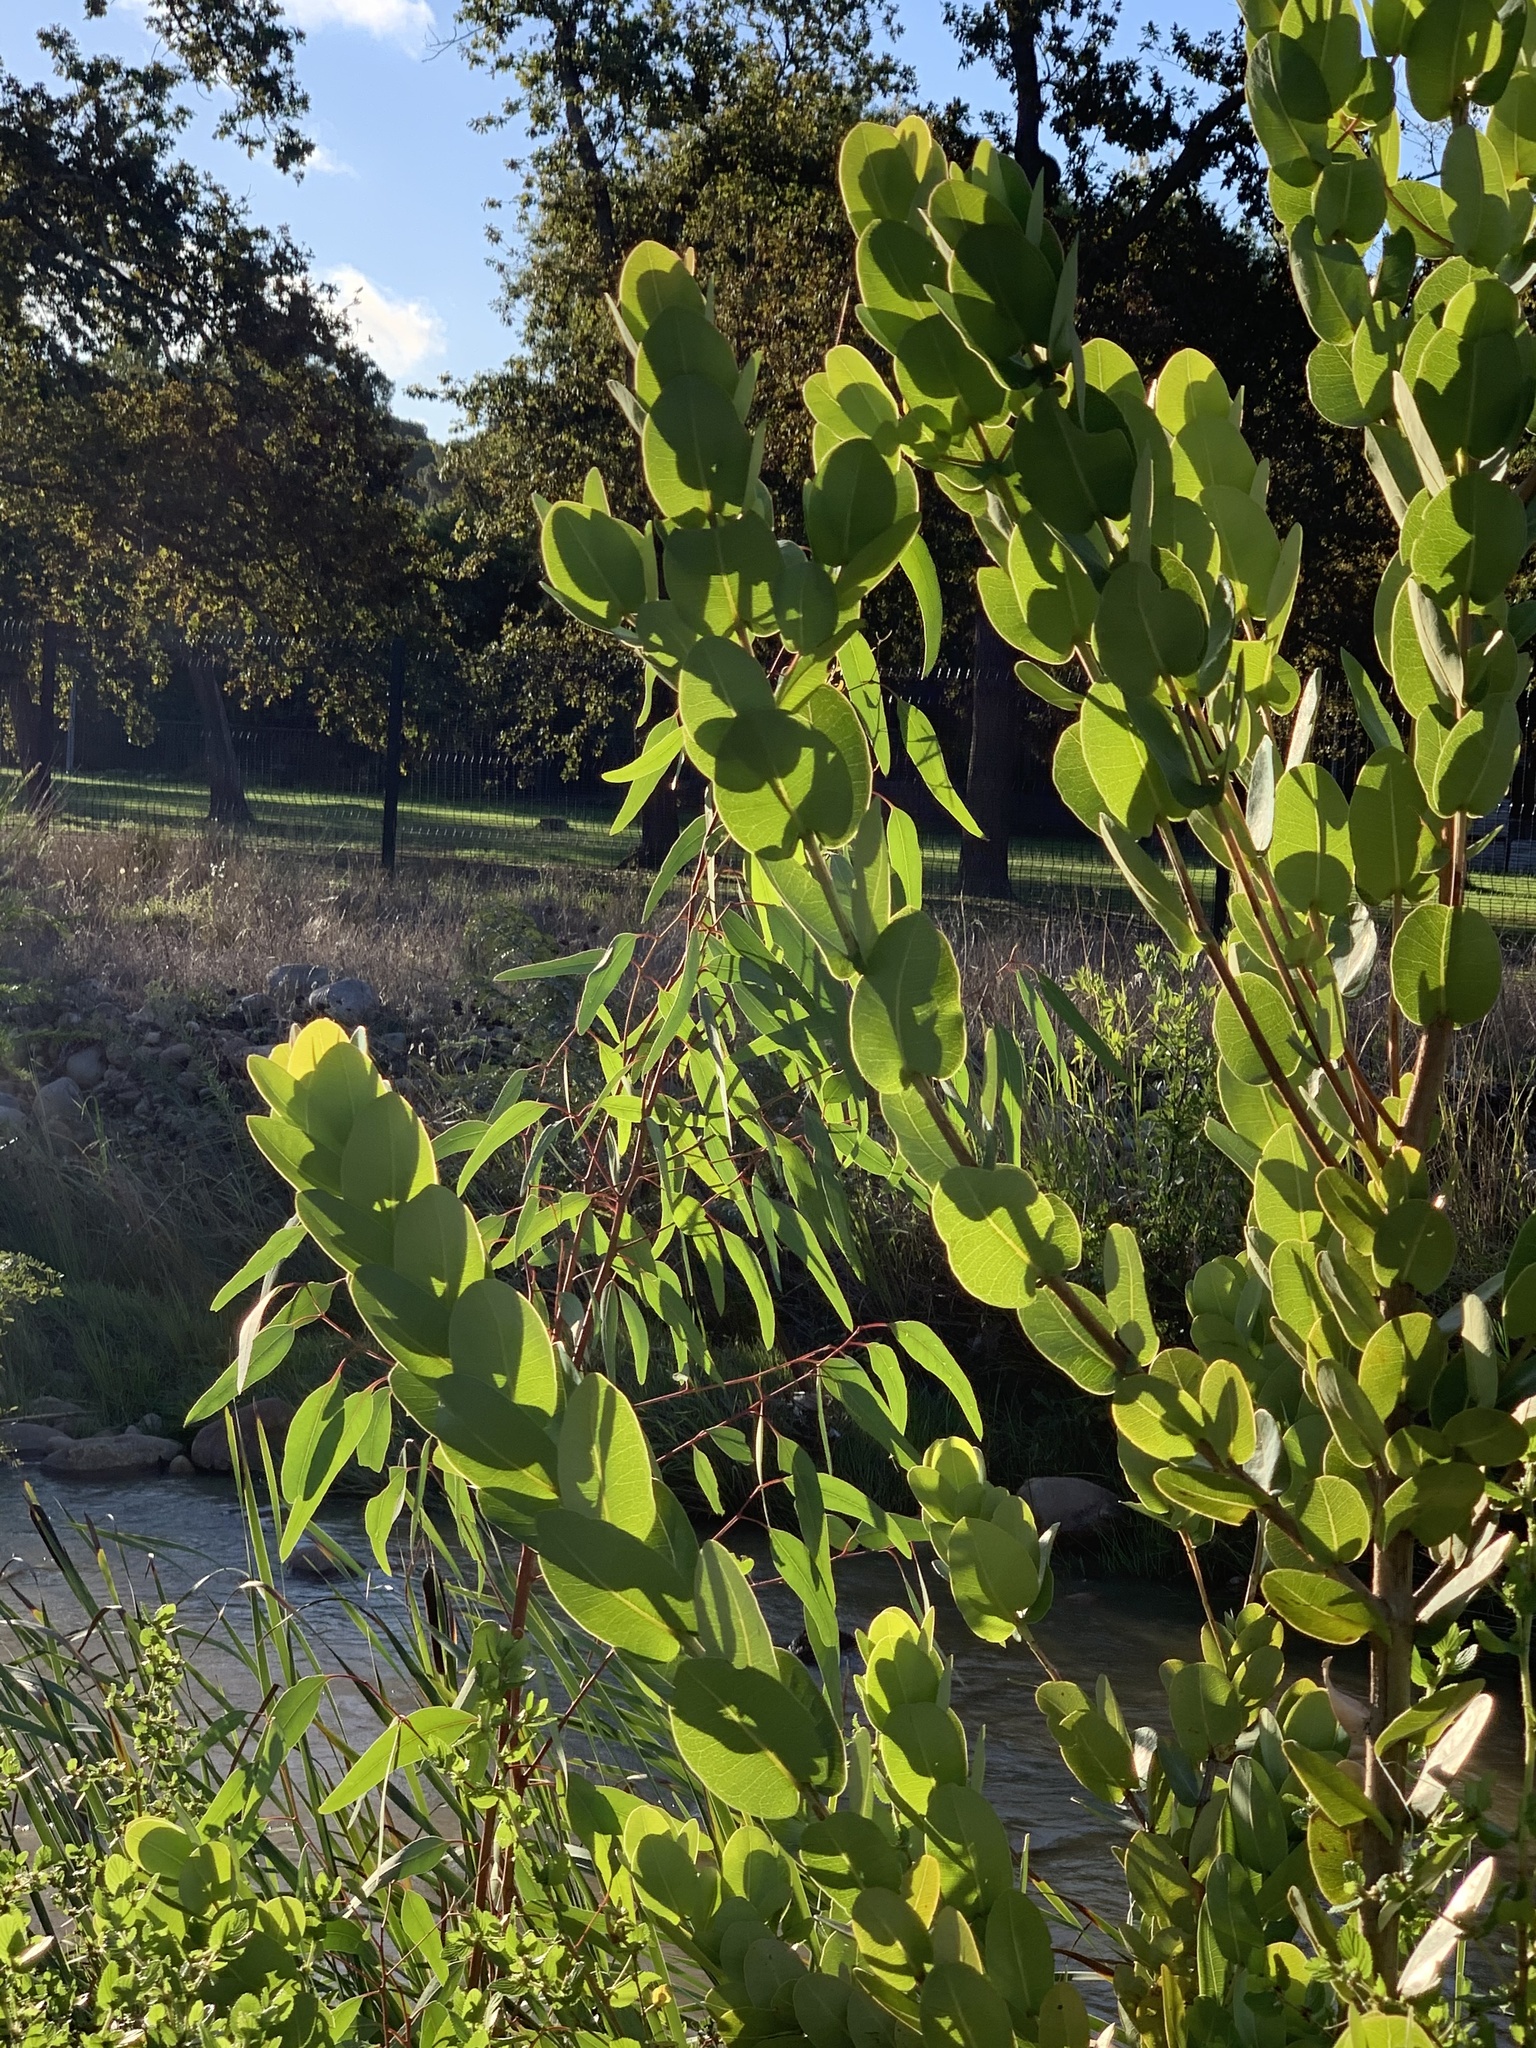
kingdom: Plantae
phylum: Tracheophyta
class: Magnoliopsida
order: Myrtales
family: Myrtaceae
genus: Syzygium
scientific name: Syzygium cordatum
